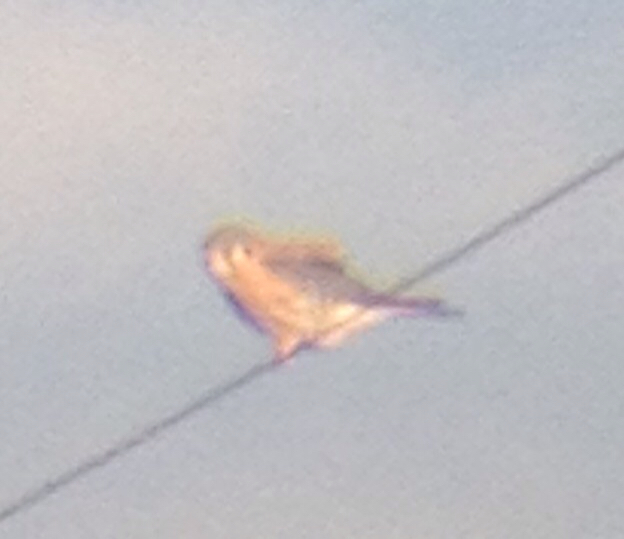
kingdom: Animalia
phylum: Chordata
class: Aves
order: Falconiformes
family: Falconidae
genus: Falco
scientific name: Falco sparverius
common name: American kestrel
